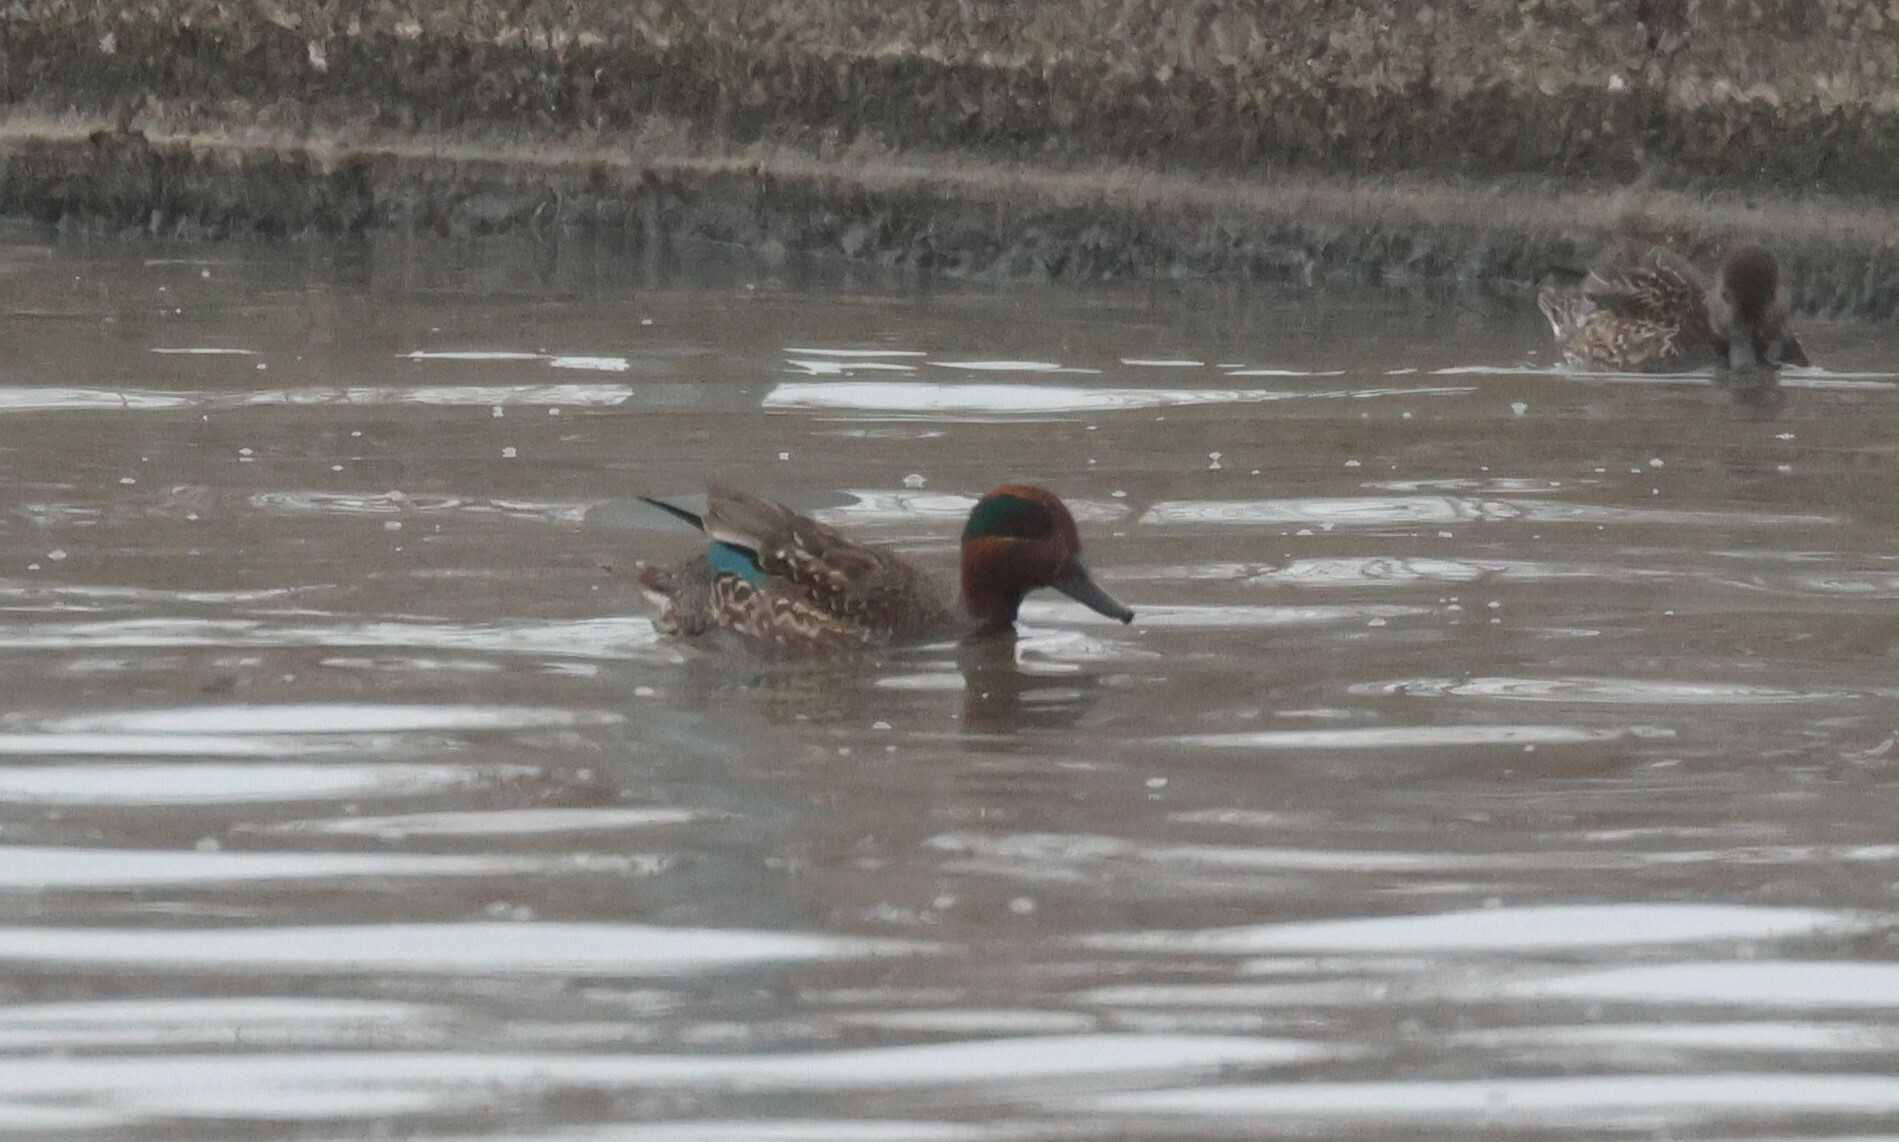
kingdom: Animalia
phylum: Chordata
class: Aves
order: Anseriformes
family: Anatidae
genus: Anas
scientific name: Anas crecca
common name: Eurasian teal
